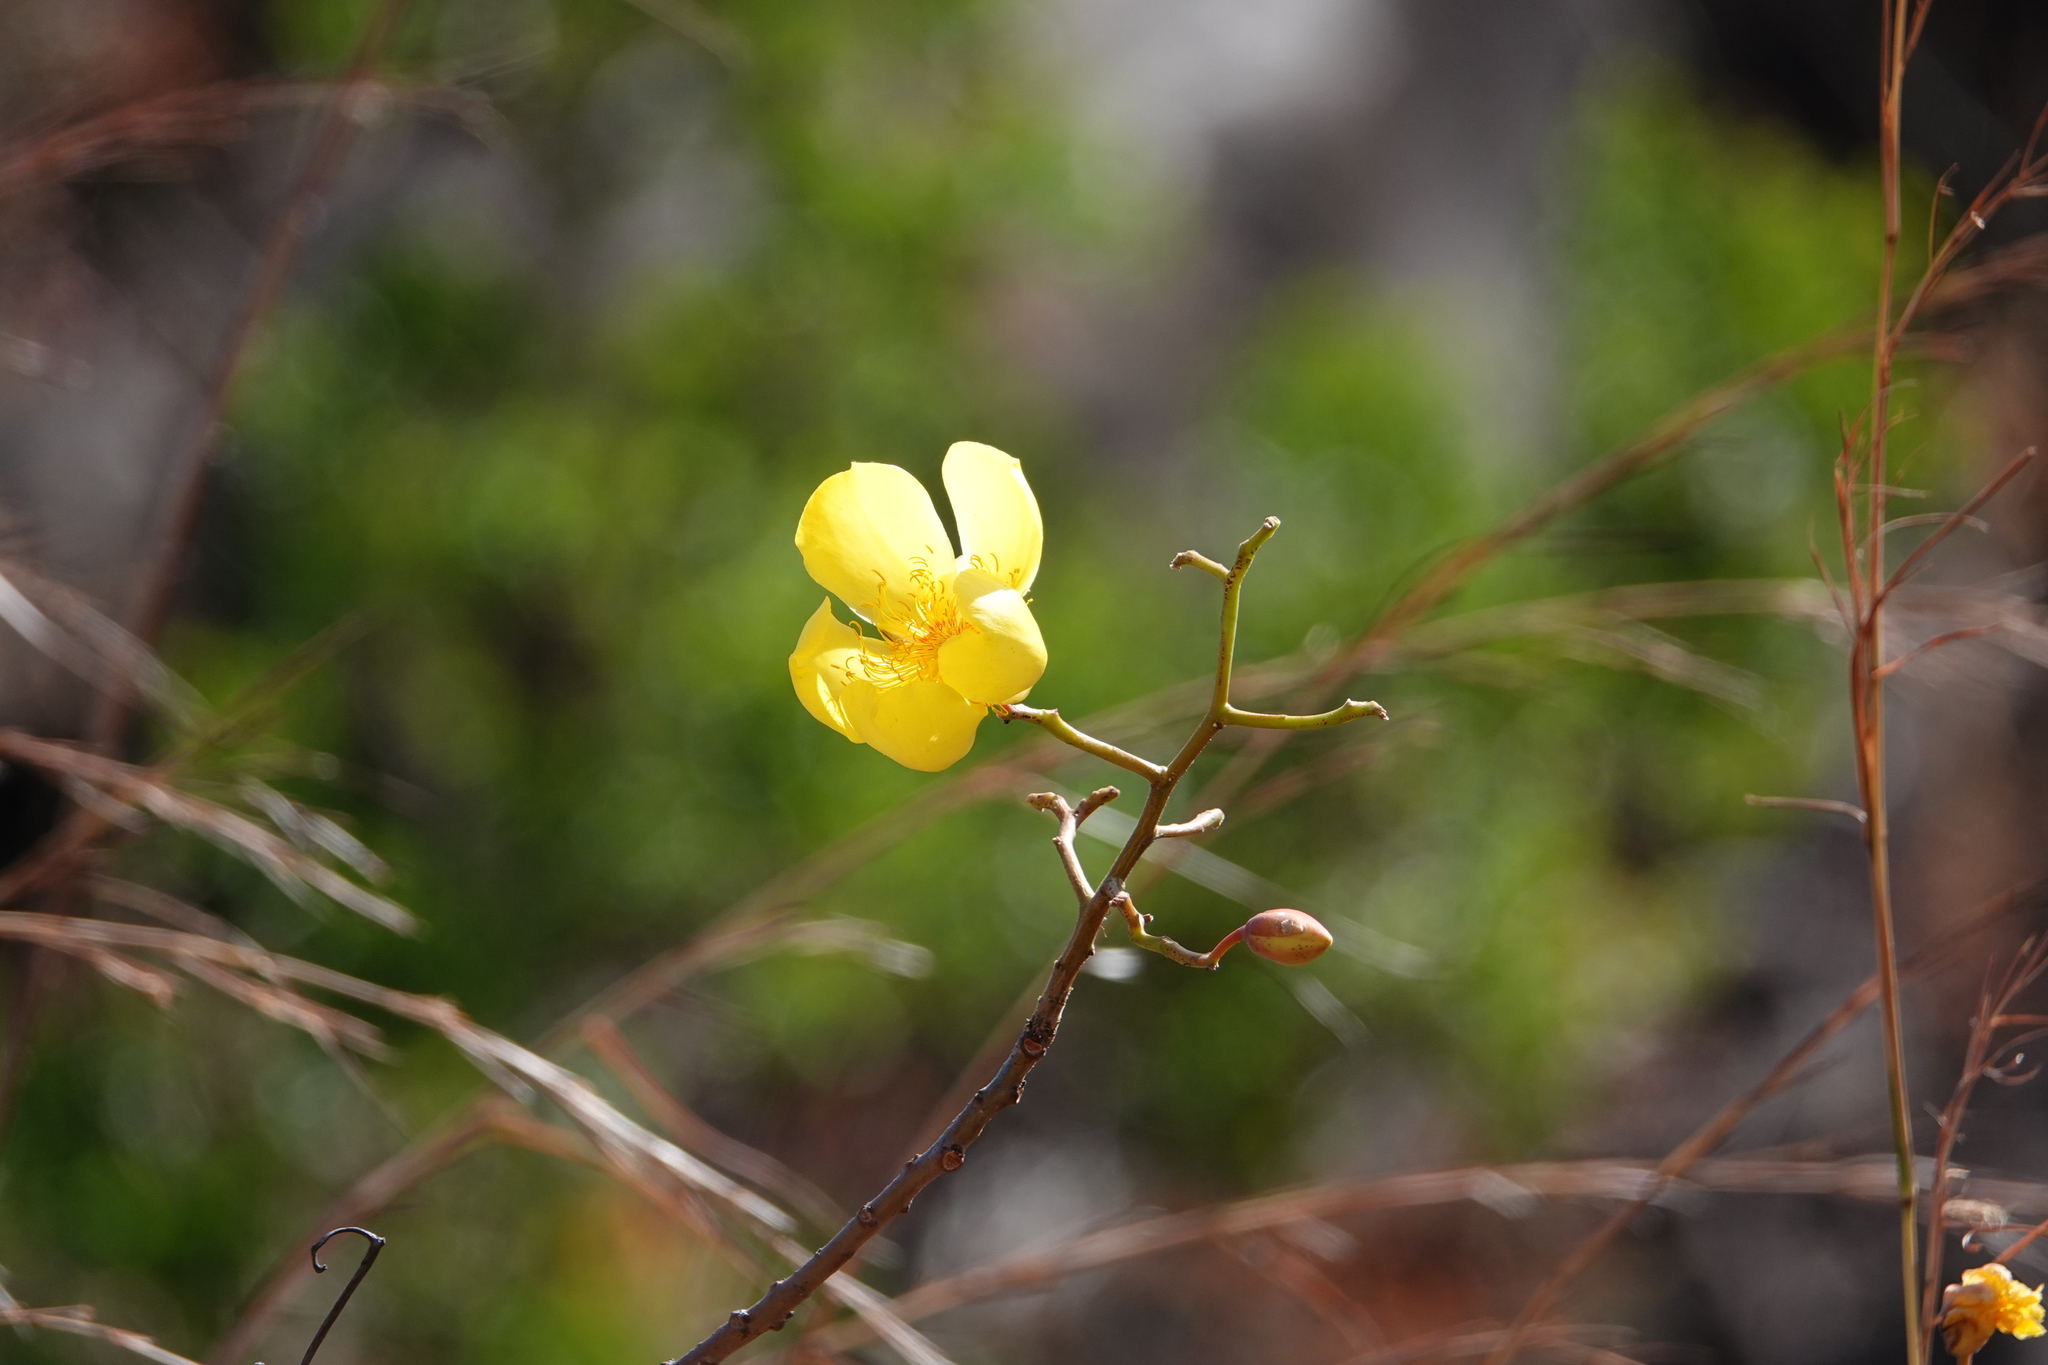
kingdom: Plantae
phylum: Tracheophyta
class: Magnoliopsida
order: Malvales
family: Cochlospermaceae
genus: Cochlospermum
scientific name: Cochlospermum vitifolium
